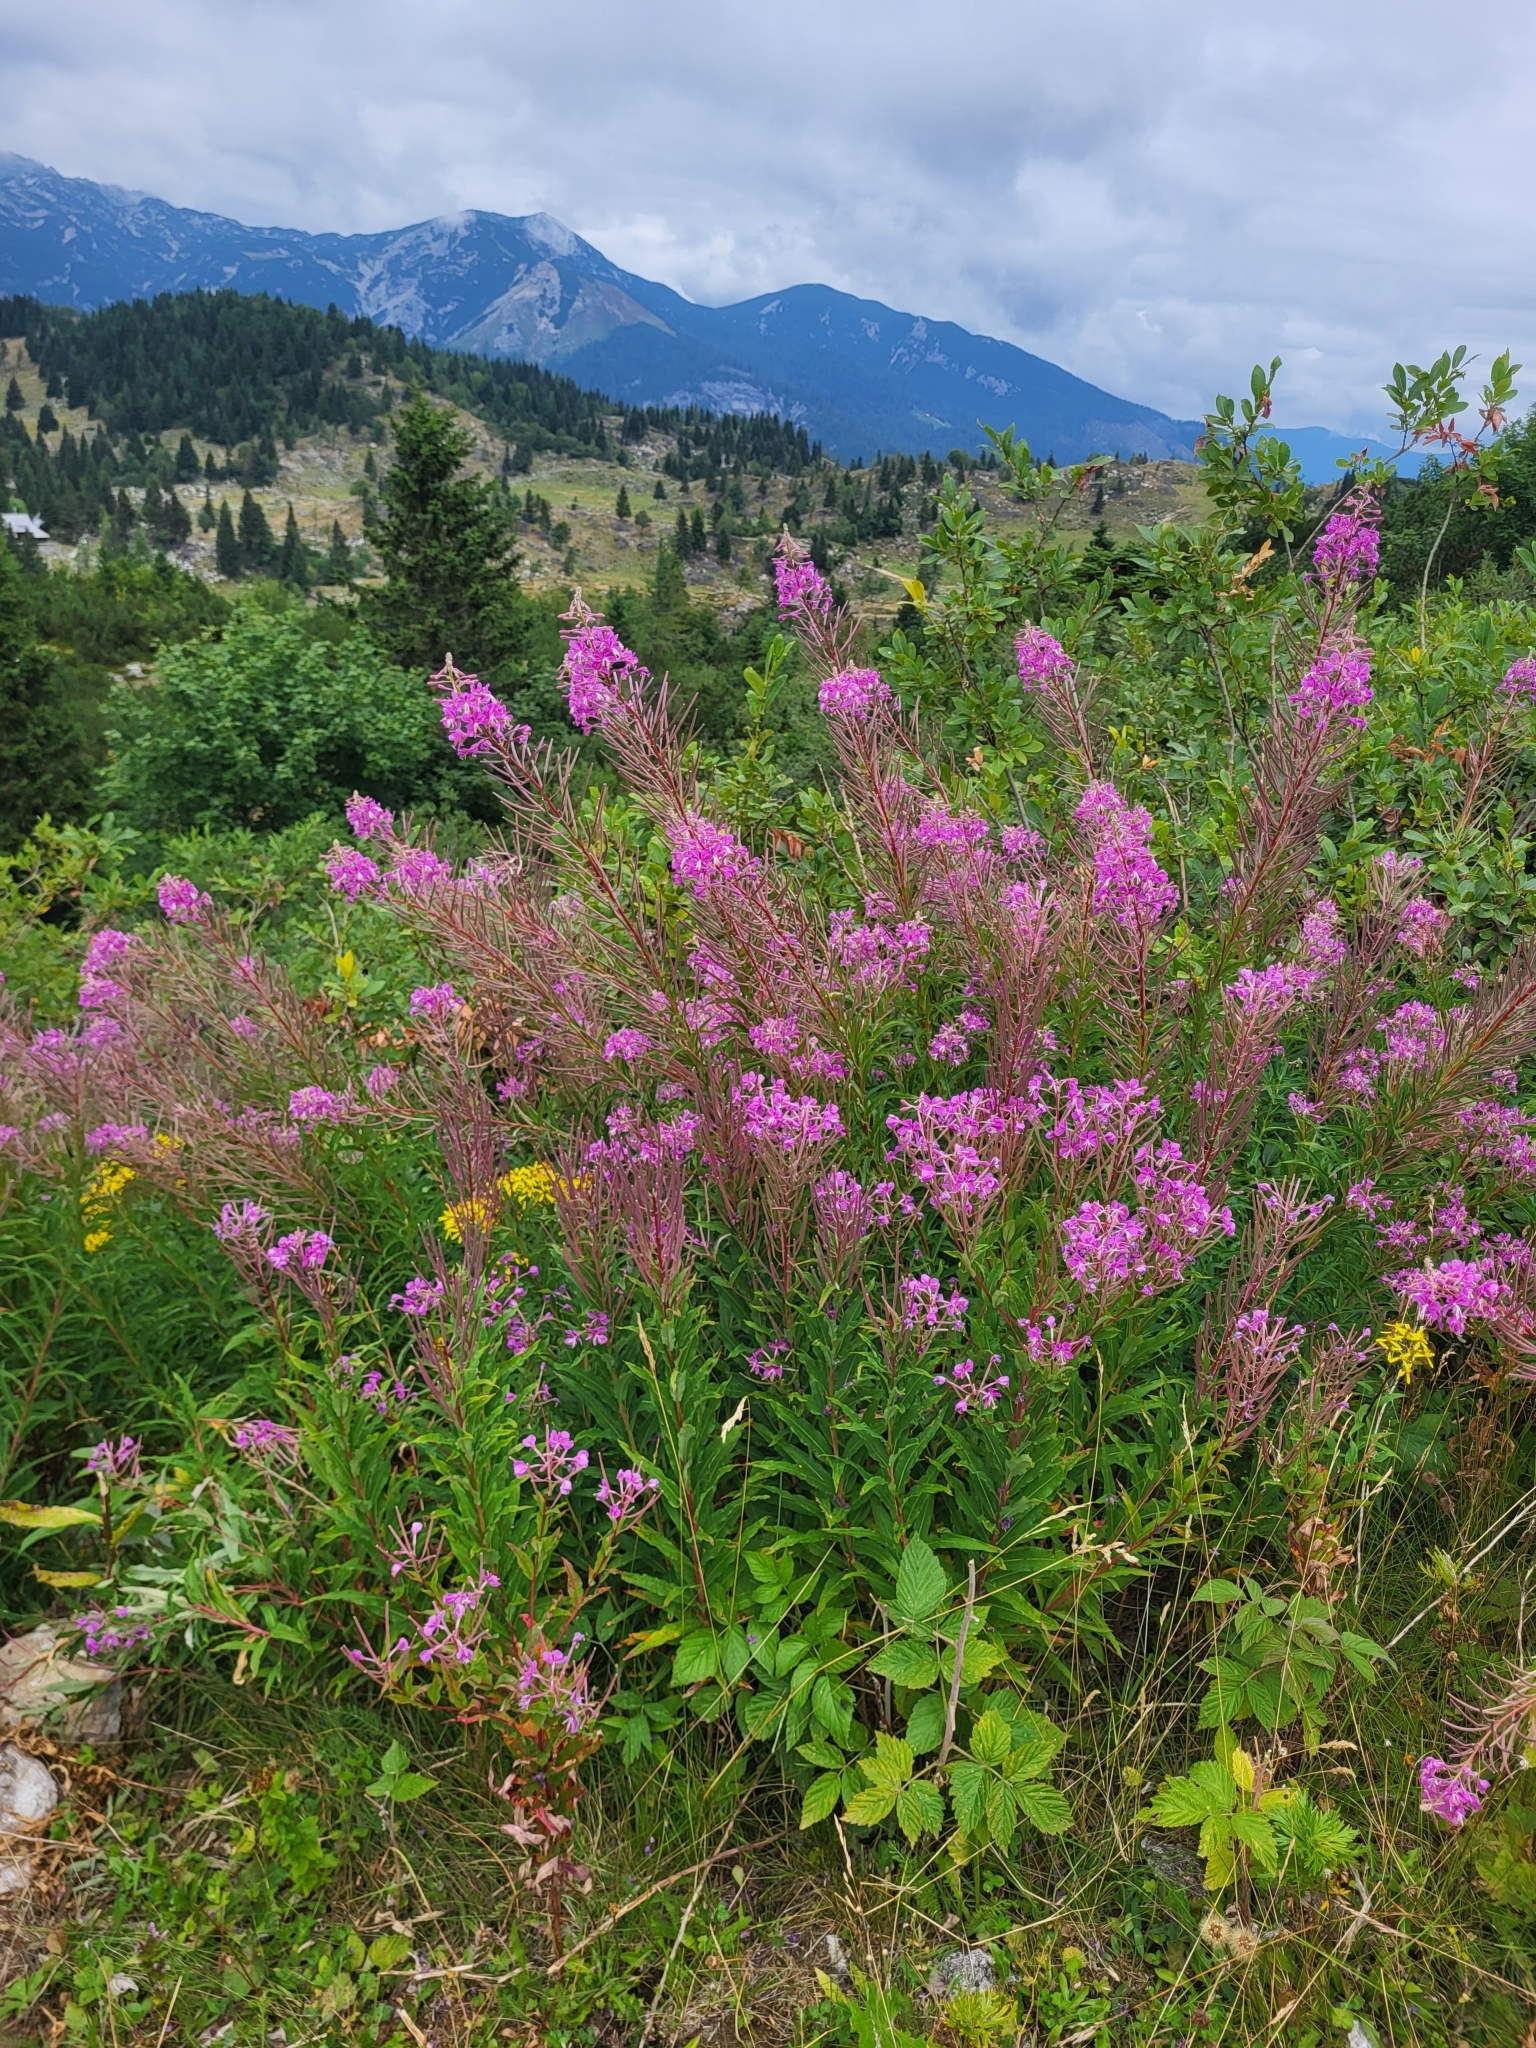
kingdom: Plantae
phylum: Tracheophyta
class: Magnoliopsida
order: Myrtales
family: Onagraceae
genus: Chamaenerion
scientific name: Chamaenerion angustifolium
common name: Fireweed
